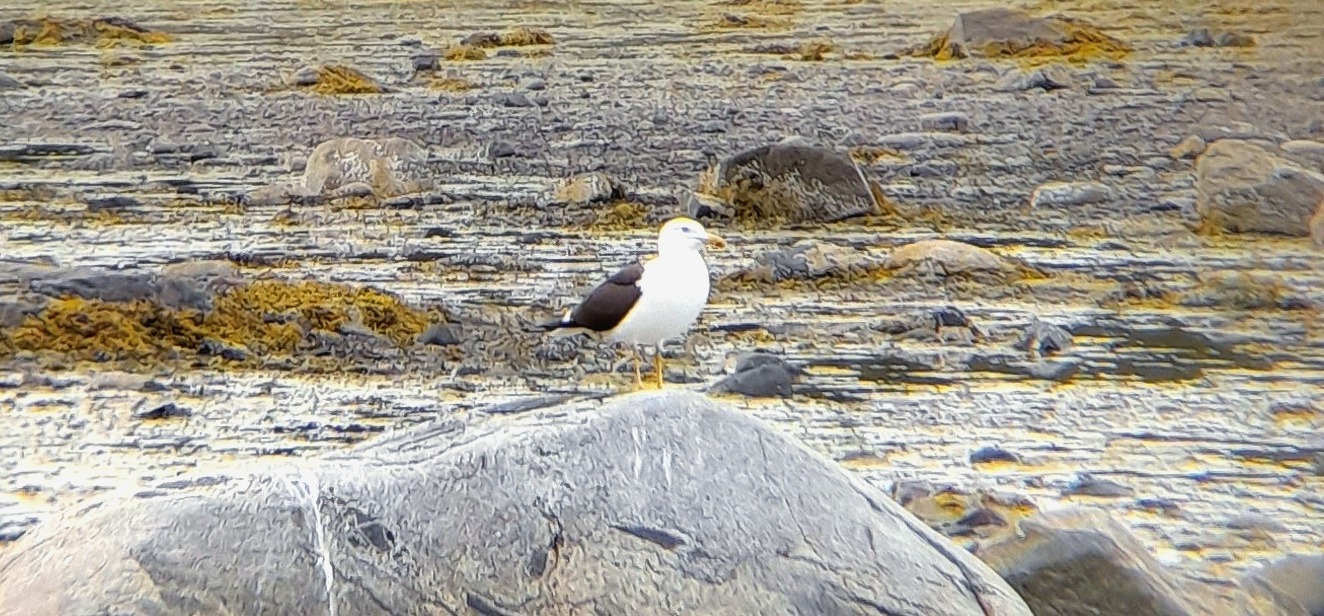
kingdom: Animalia
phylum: Chordata
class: Aves
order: Charadriiformes
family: Laridae
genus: Larus
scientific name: Larus fuscus
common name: Lesser black-backed gull
